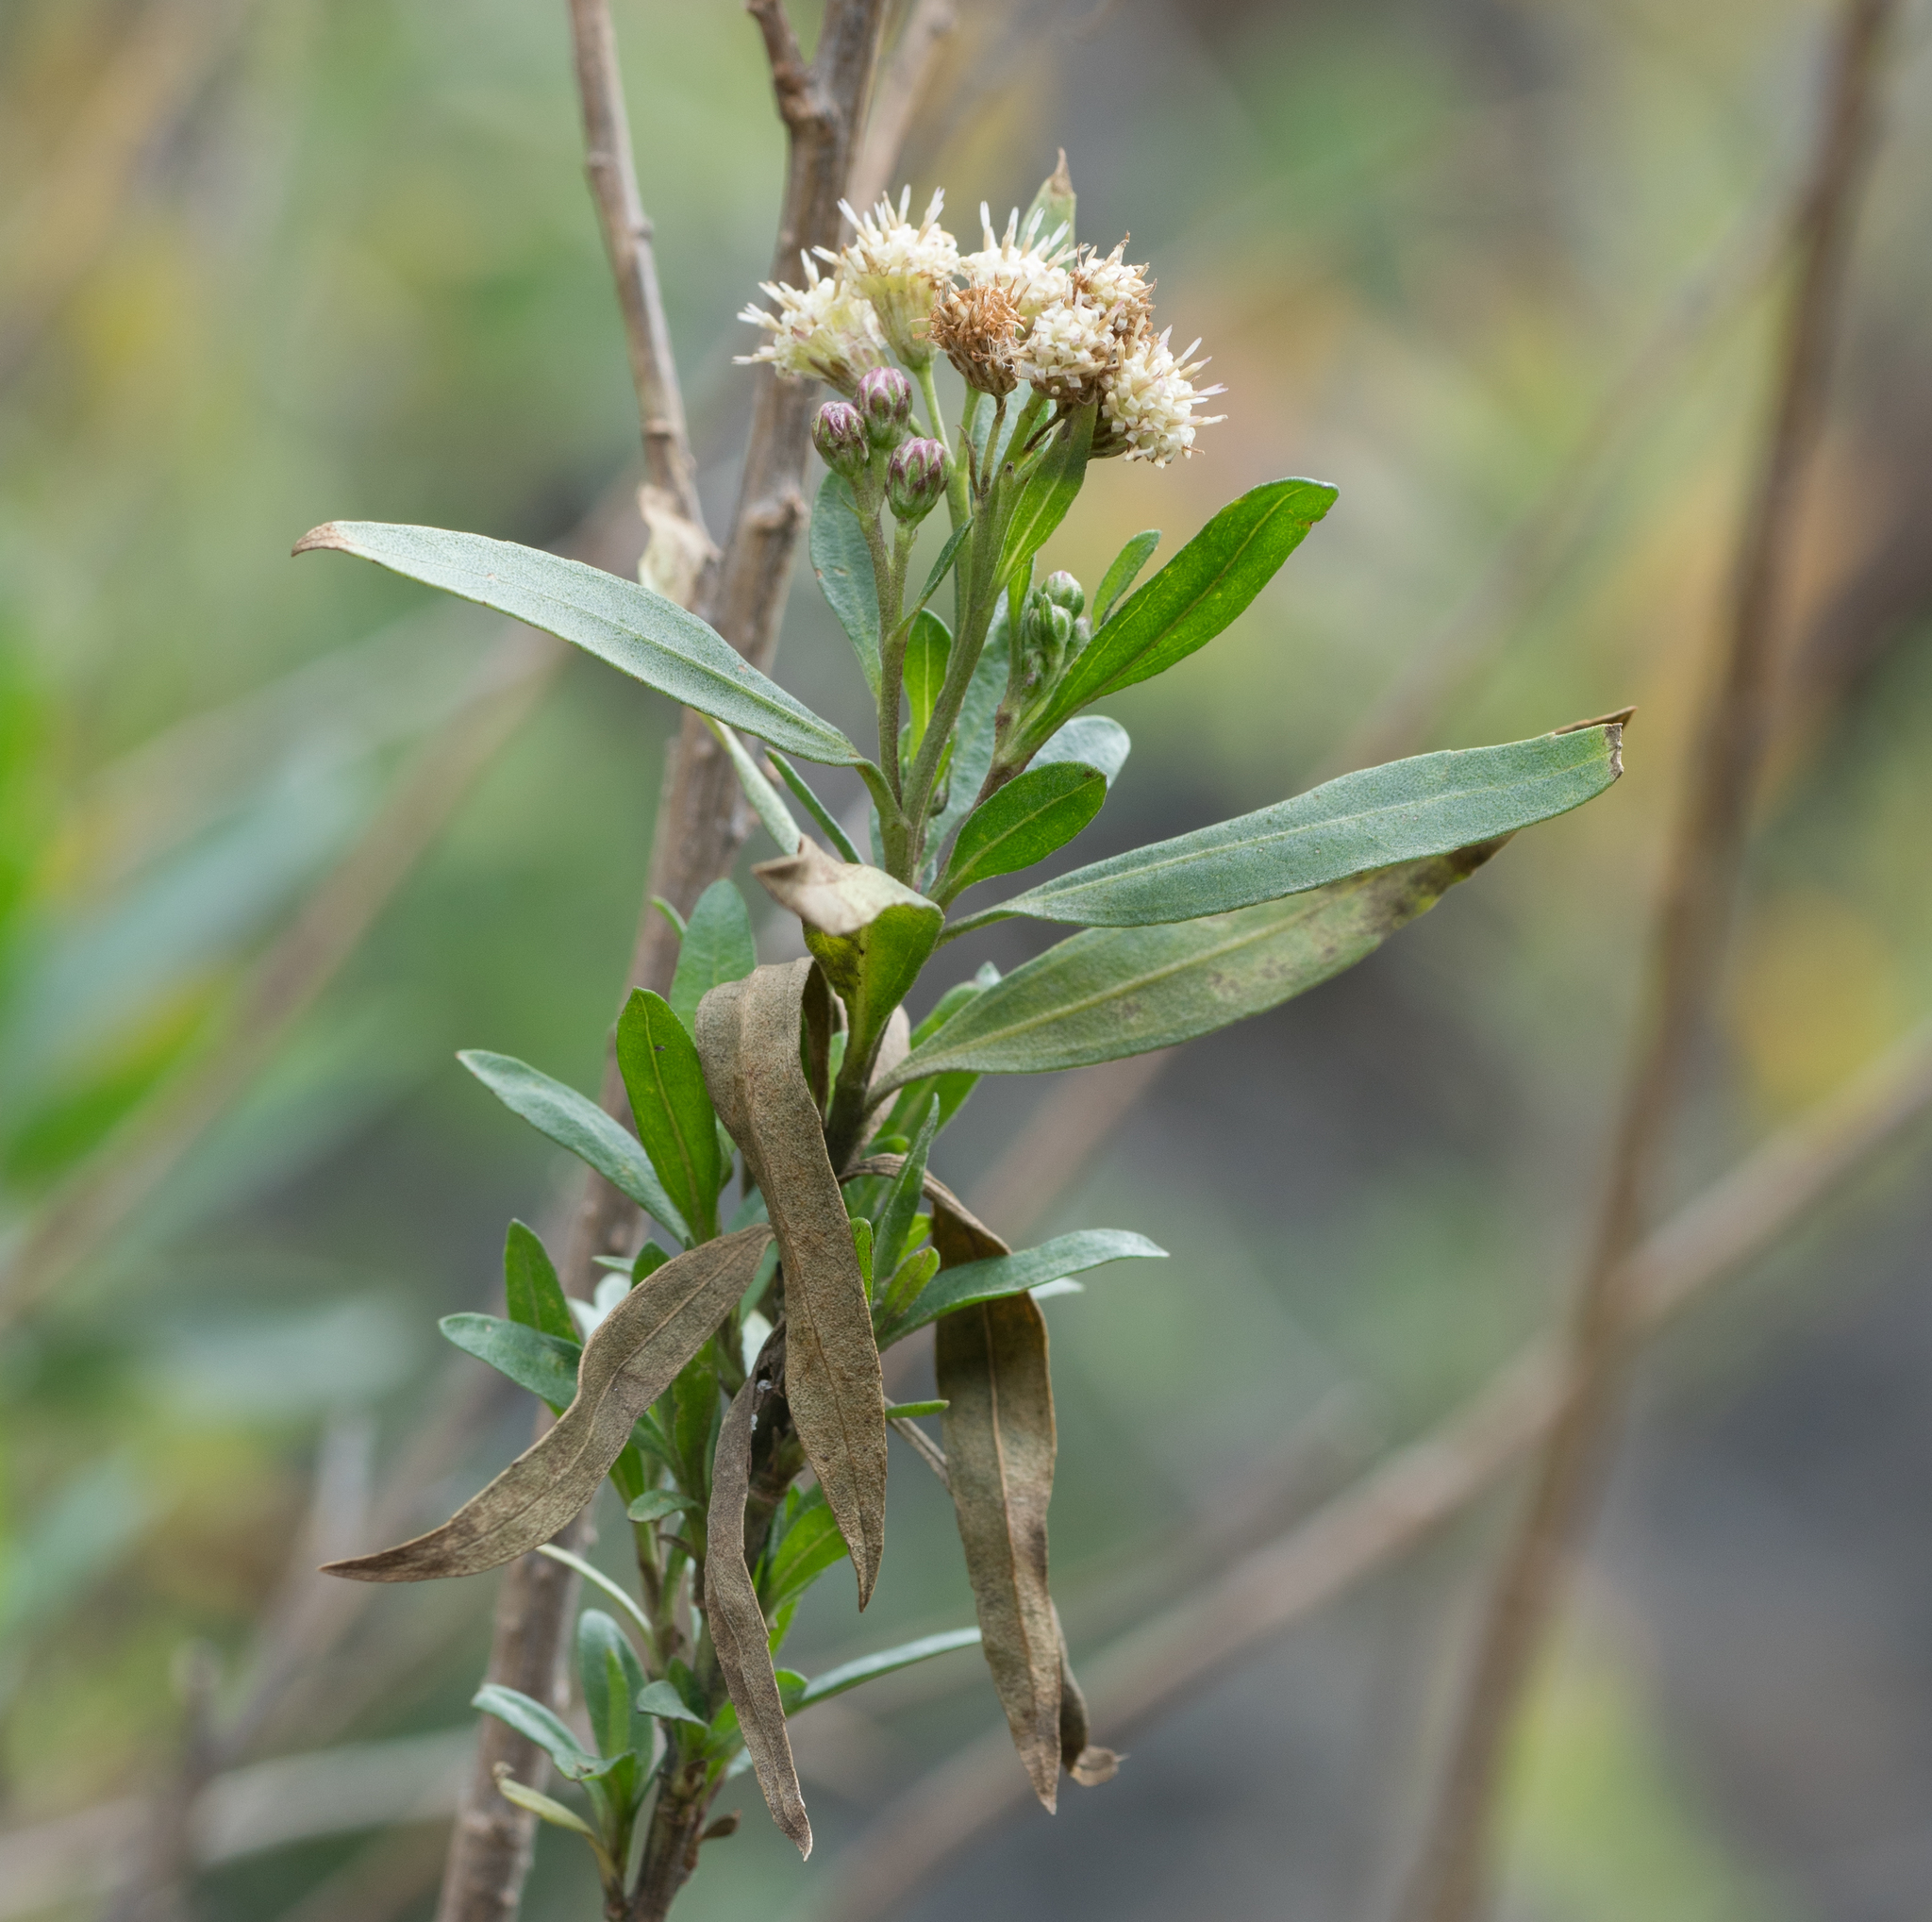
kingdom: Plantae
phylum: Tracheophyta
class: Magnoliopsida
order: Asterales
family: Asteraceae
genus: Baccharis
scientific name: Baccharis salicifolia
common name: Sticky baccharis
